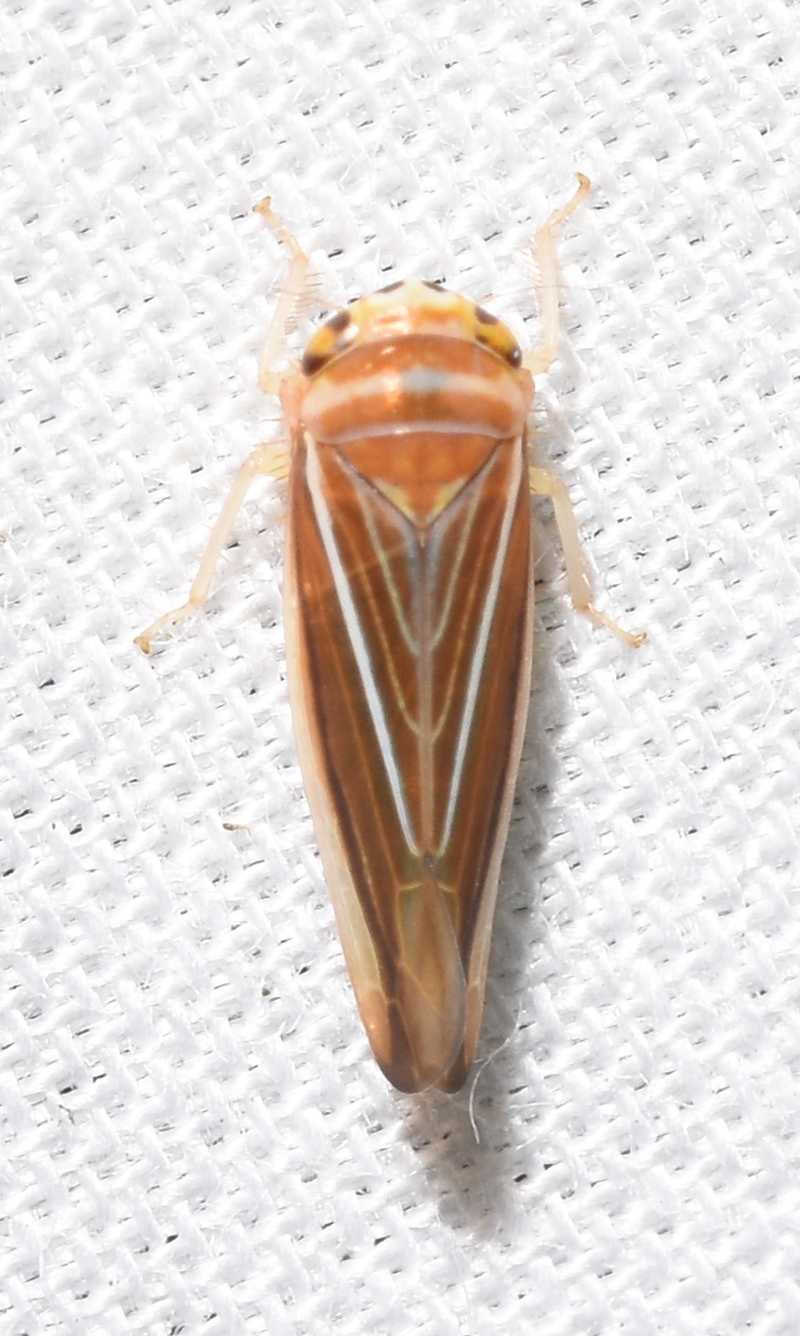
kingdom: Animalia
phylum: Arthropoda
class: Insecta
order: Hemiptera
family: Cicadellidae
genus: Idiodonus
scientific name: Idiodonus kennicotti
